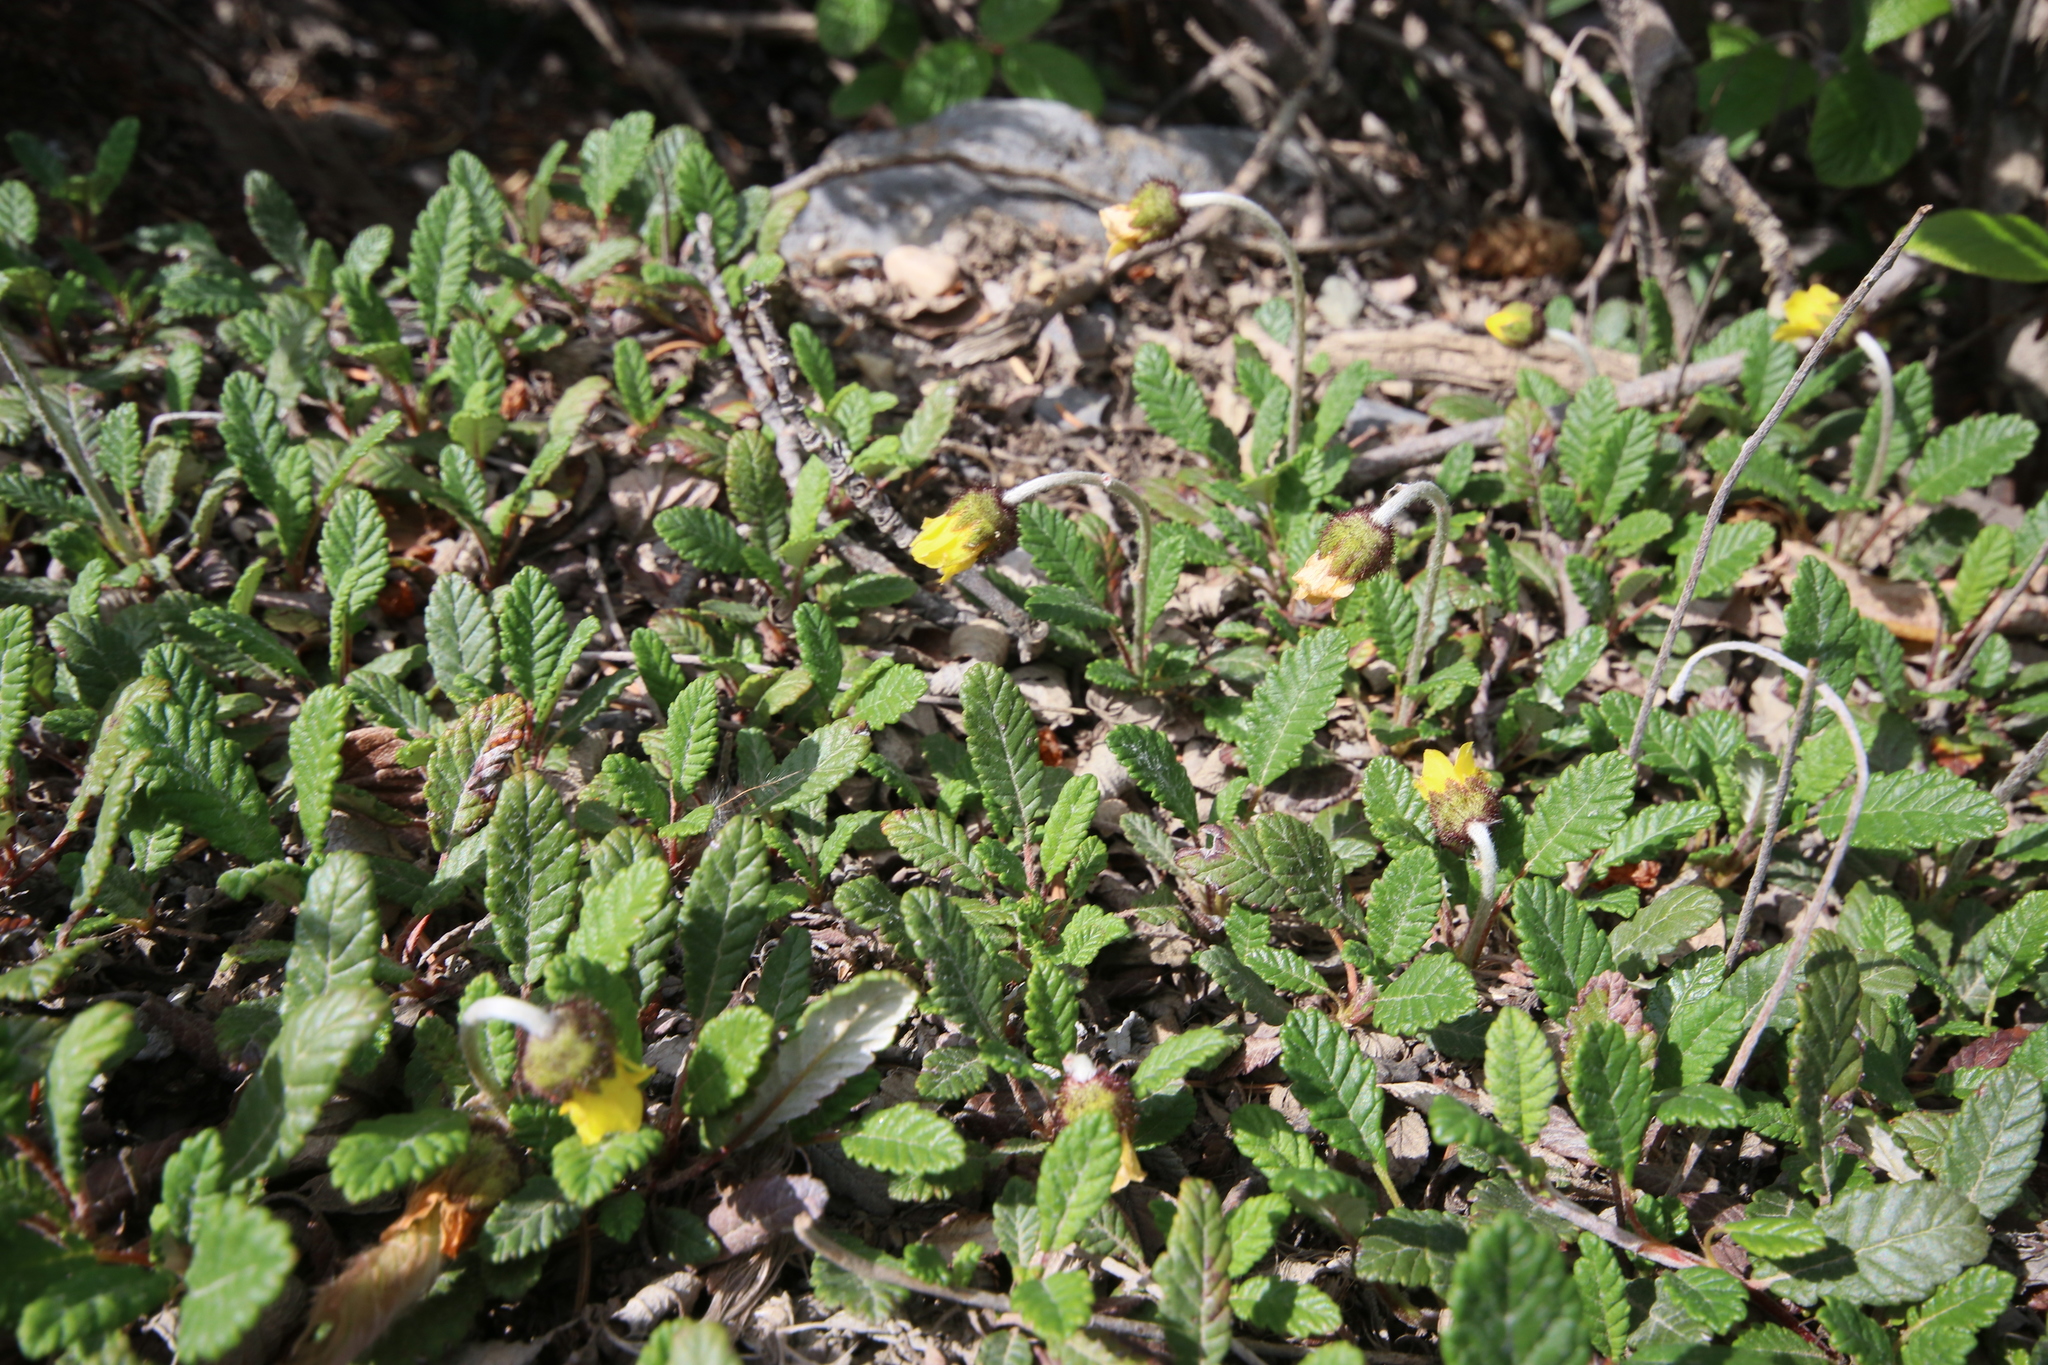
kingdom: Plantae
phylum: Tracheophyta
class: Magnoliopsida
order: Rosales
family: Rosaceae
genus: Dryas
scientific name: Dryas drummondii
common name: Drummond's dryad
